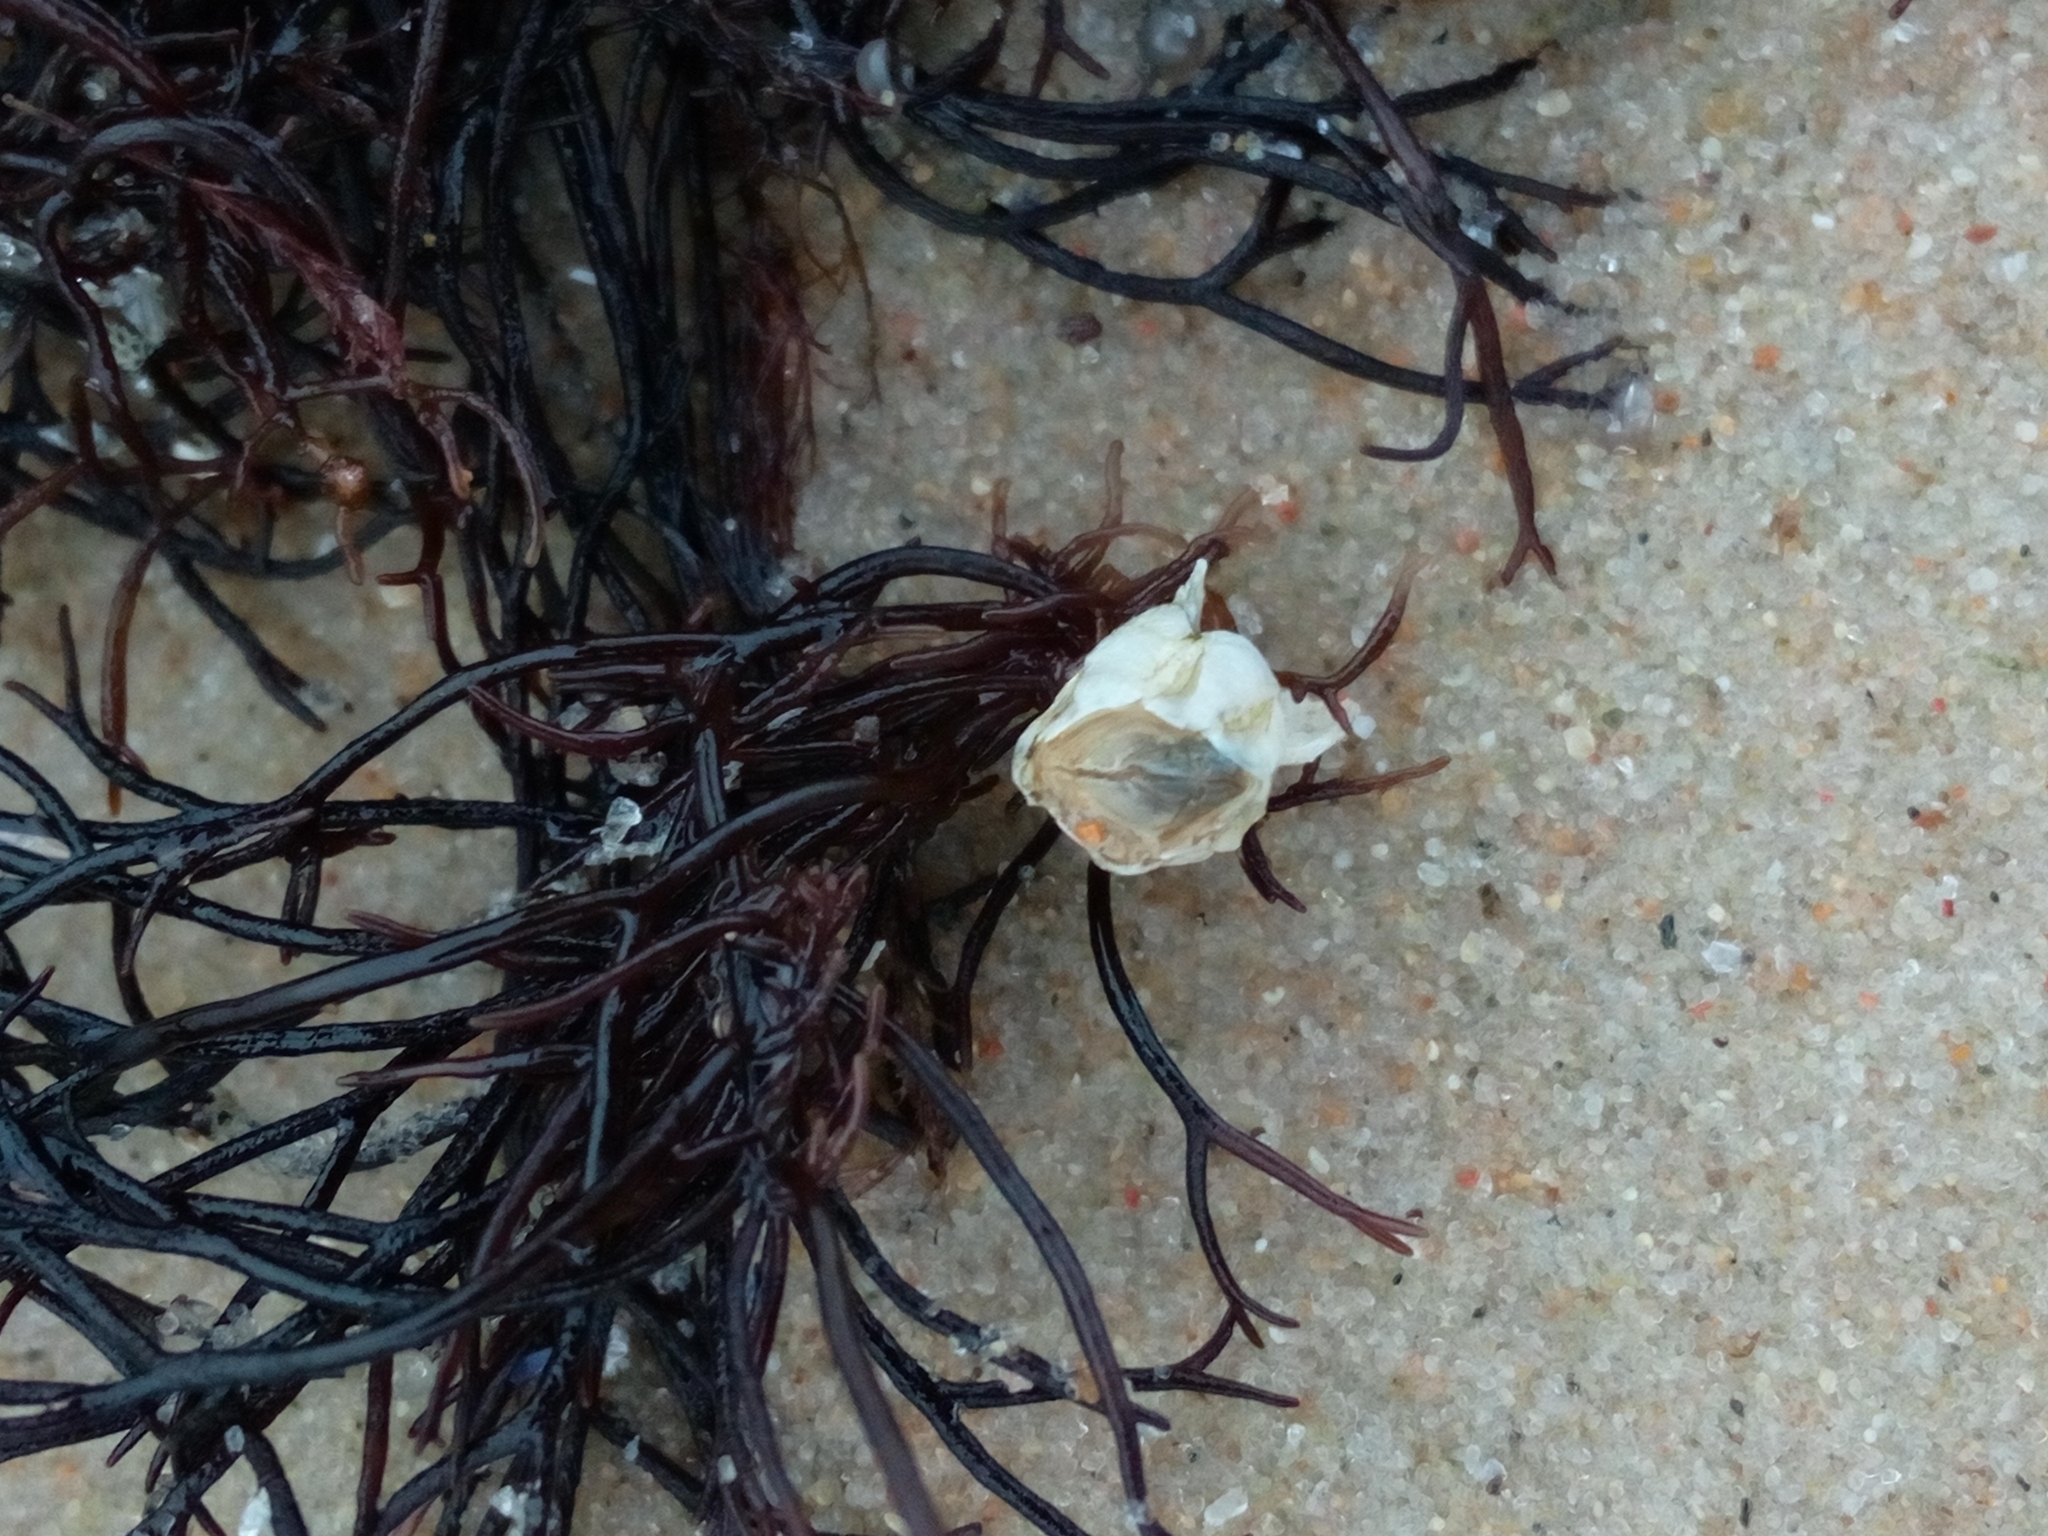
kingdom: Animalia
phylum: Arthropoda
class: Maxillopoda
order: Sessilia
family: Balanidae
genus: Amphibalanus
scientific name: Amphibalanus improvisus
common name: Bay barnacle
